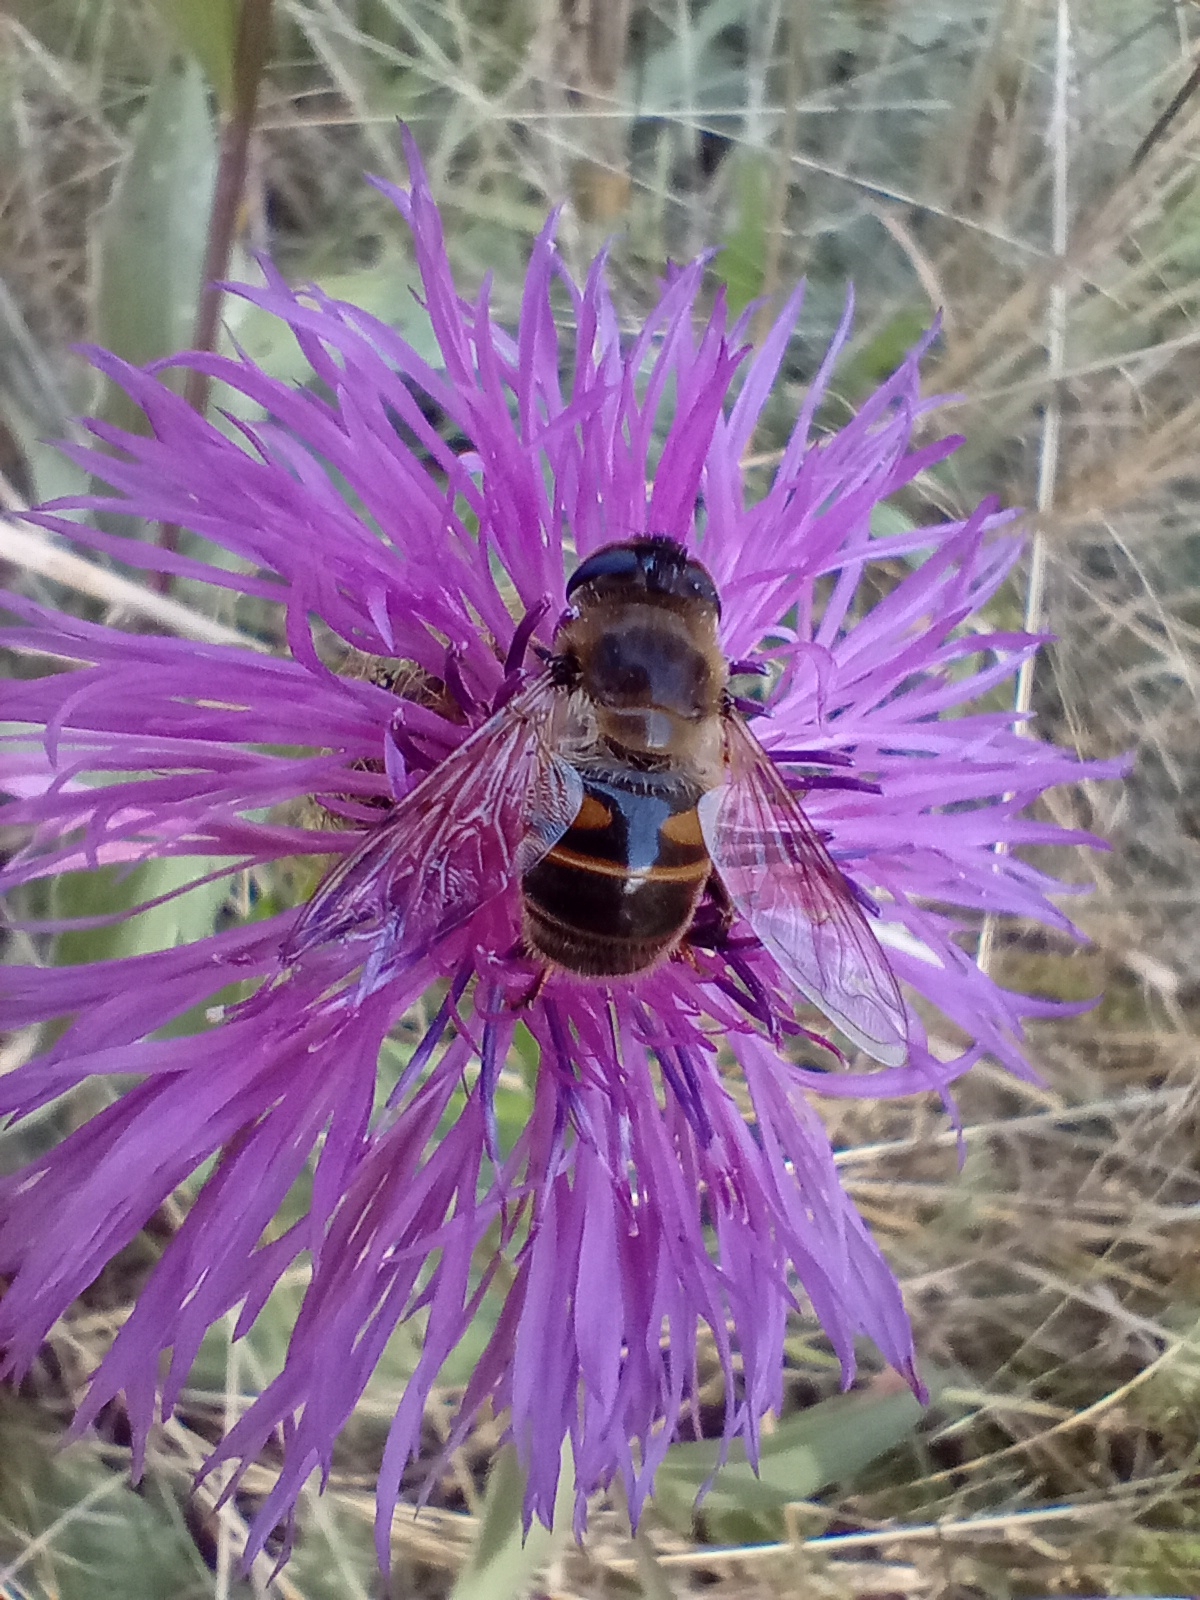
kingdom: Animalia
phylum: Arthropoda
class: Insecta
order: Diptera
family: Syrphidae
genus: Eristalis
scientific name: Eristalis tenax
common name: Drone fly
